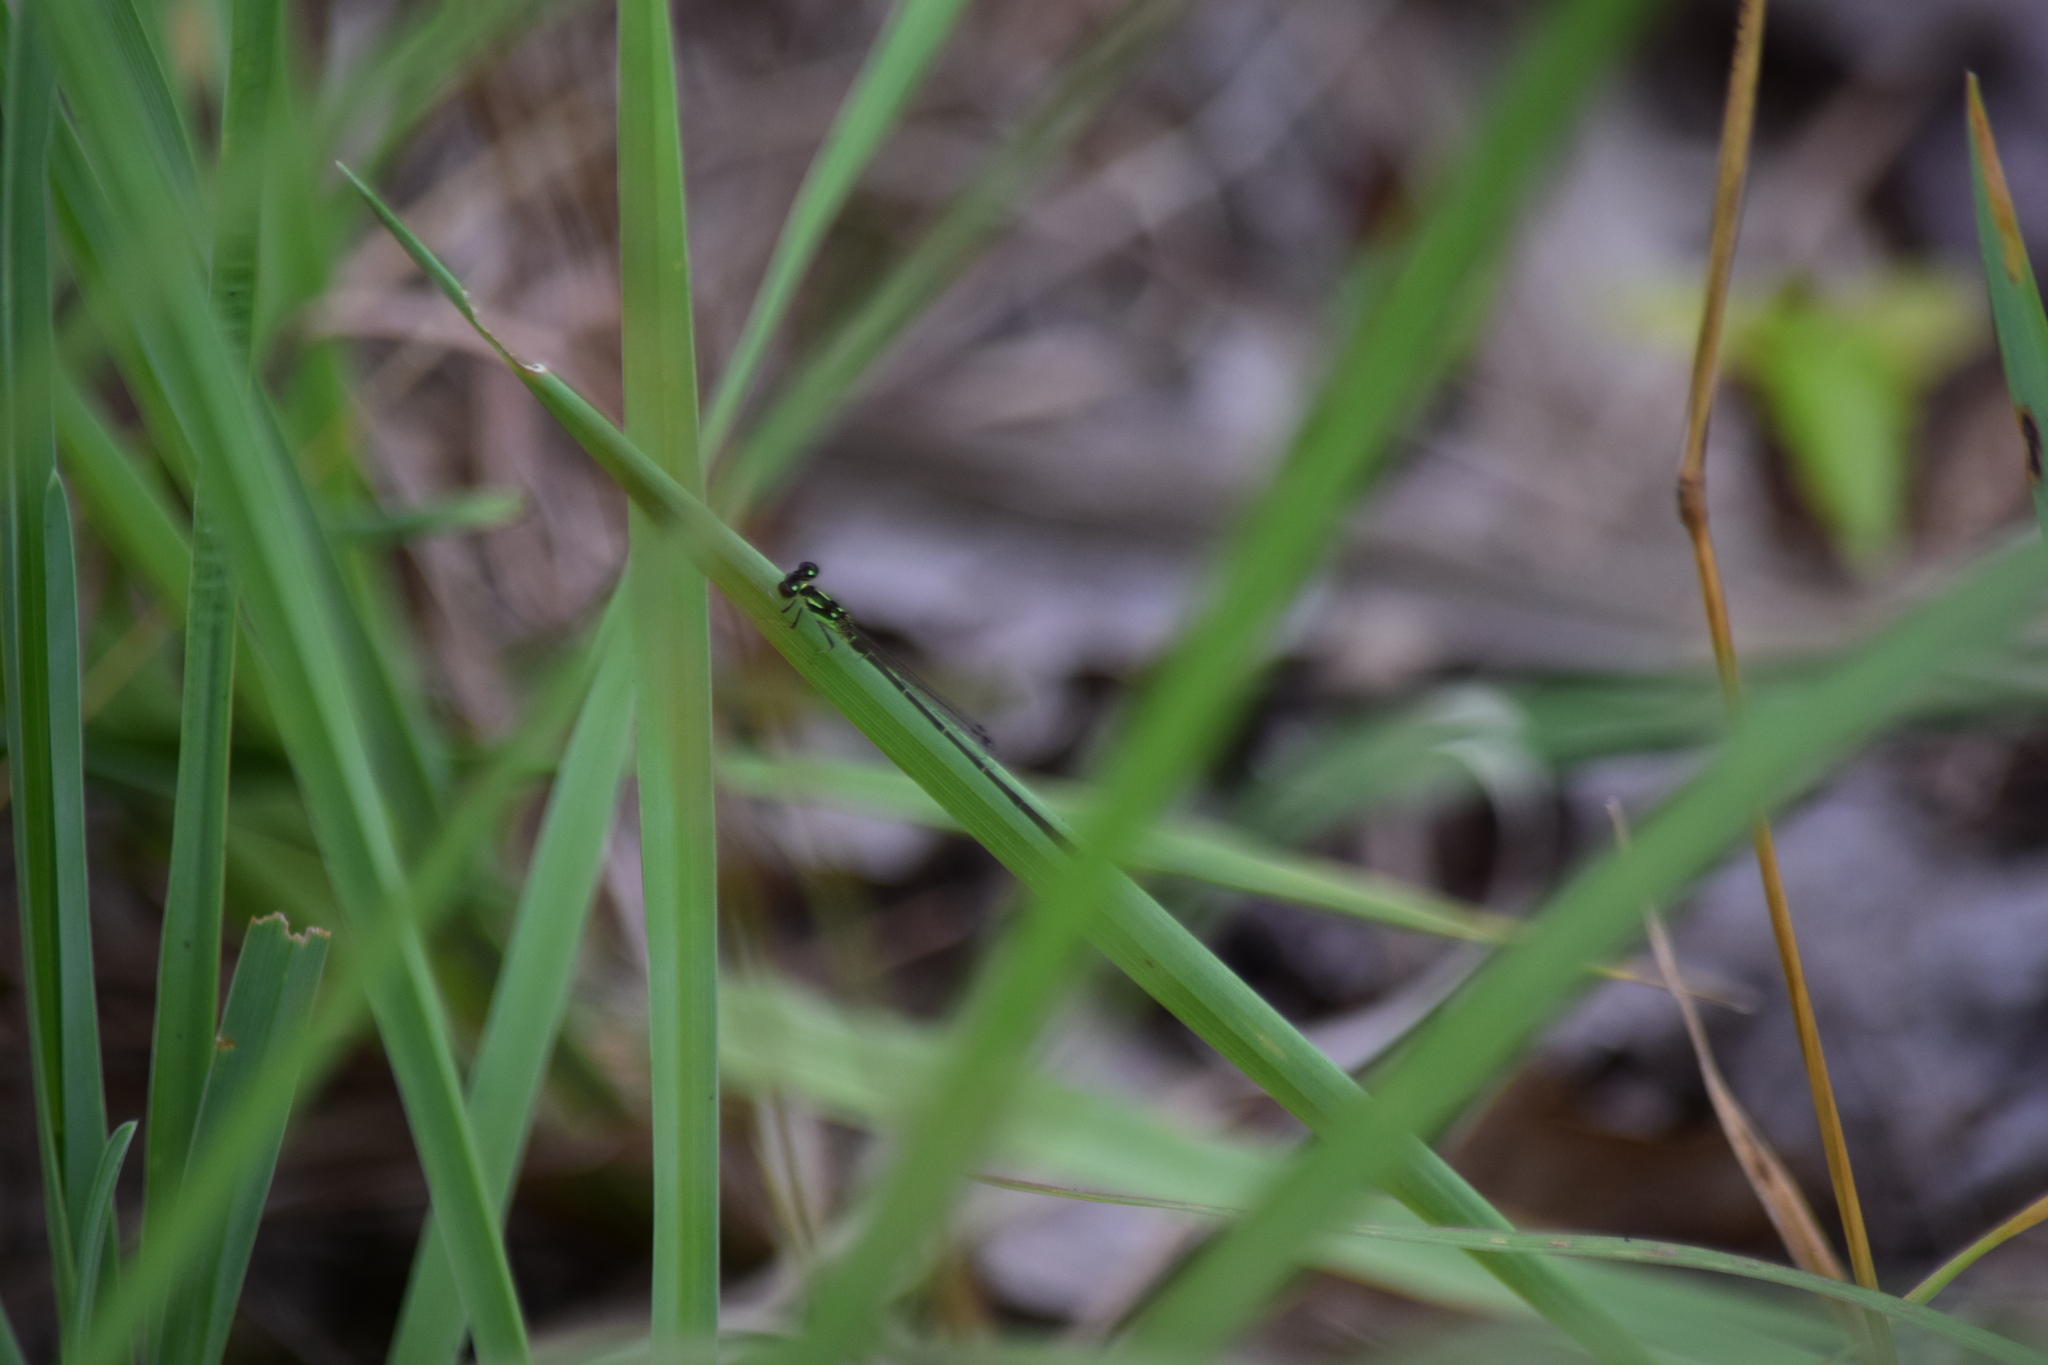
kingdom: Animalia
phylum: Arthropoda
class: Insecta
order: Odonata
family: Coenagrionidae
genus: Ischnura
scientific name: Ischnura posita
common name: Fragile forktail
